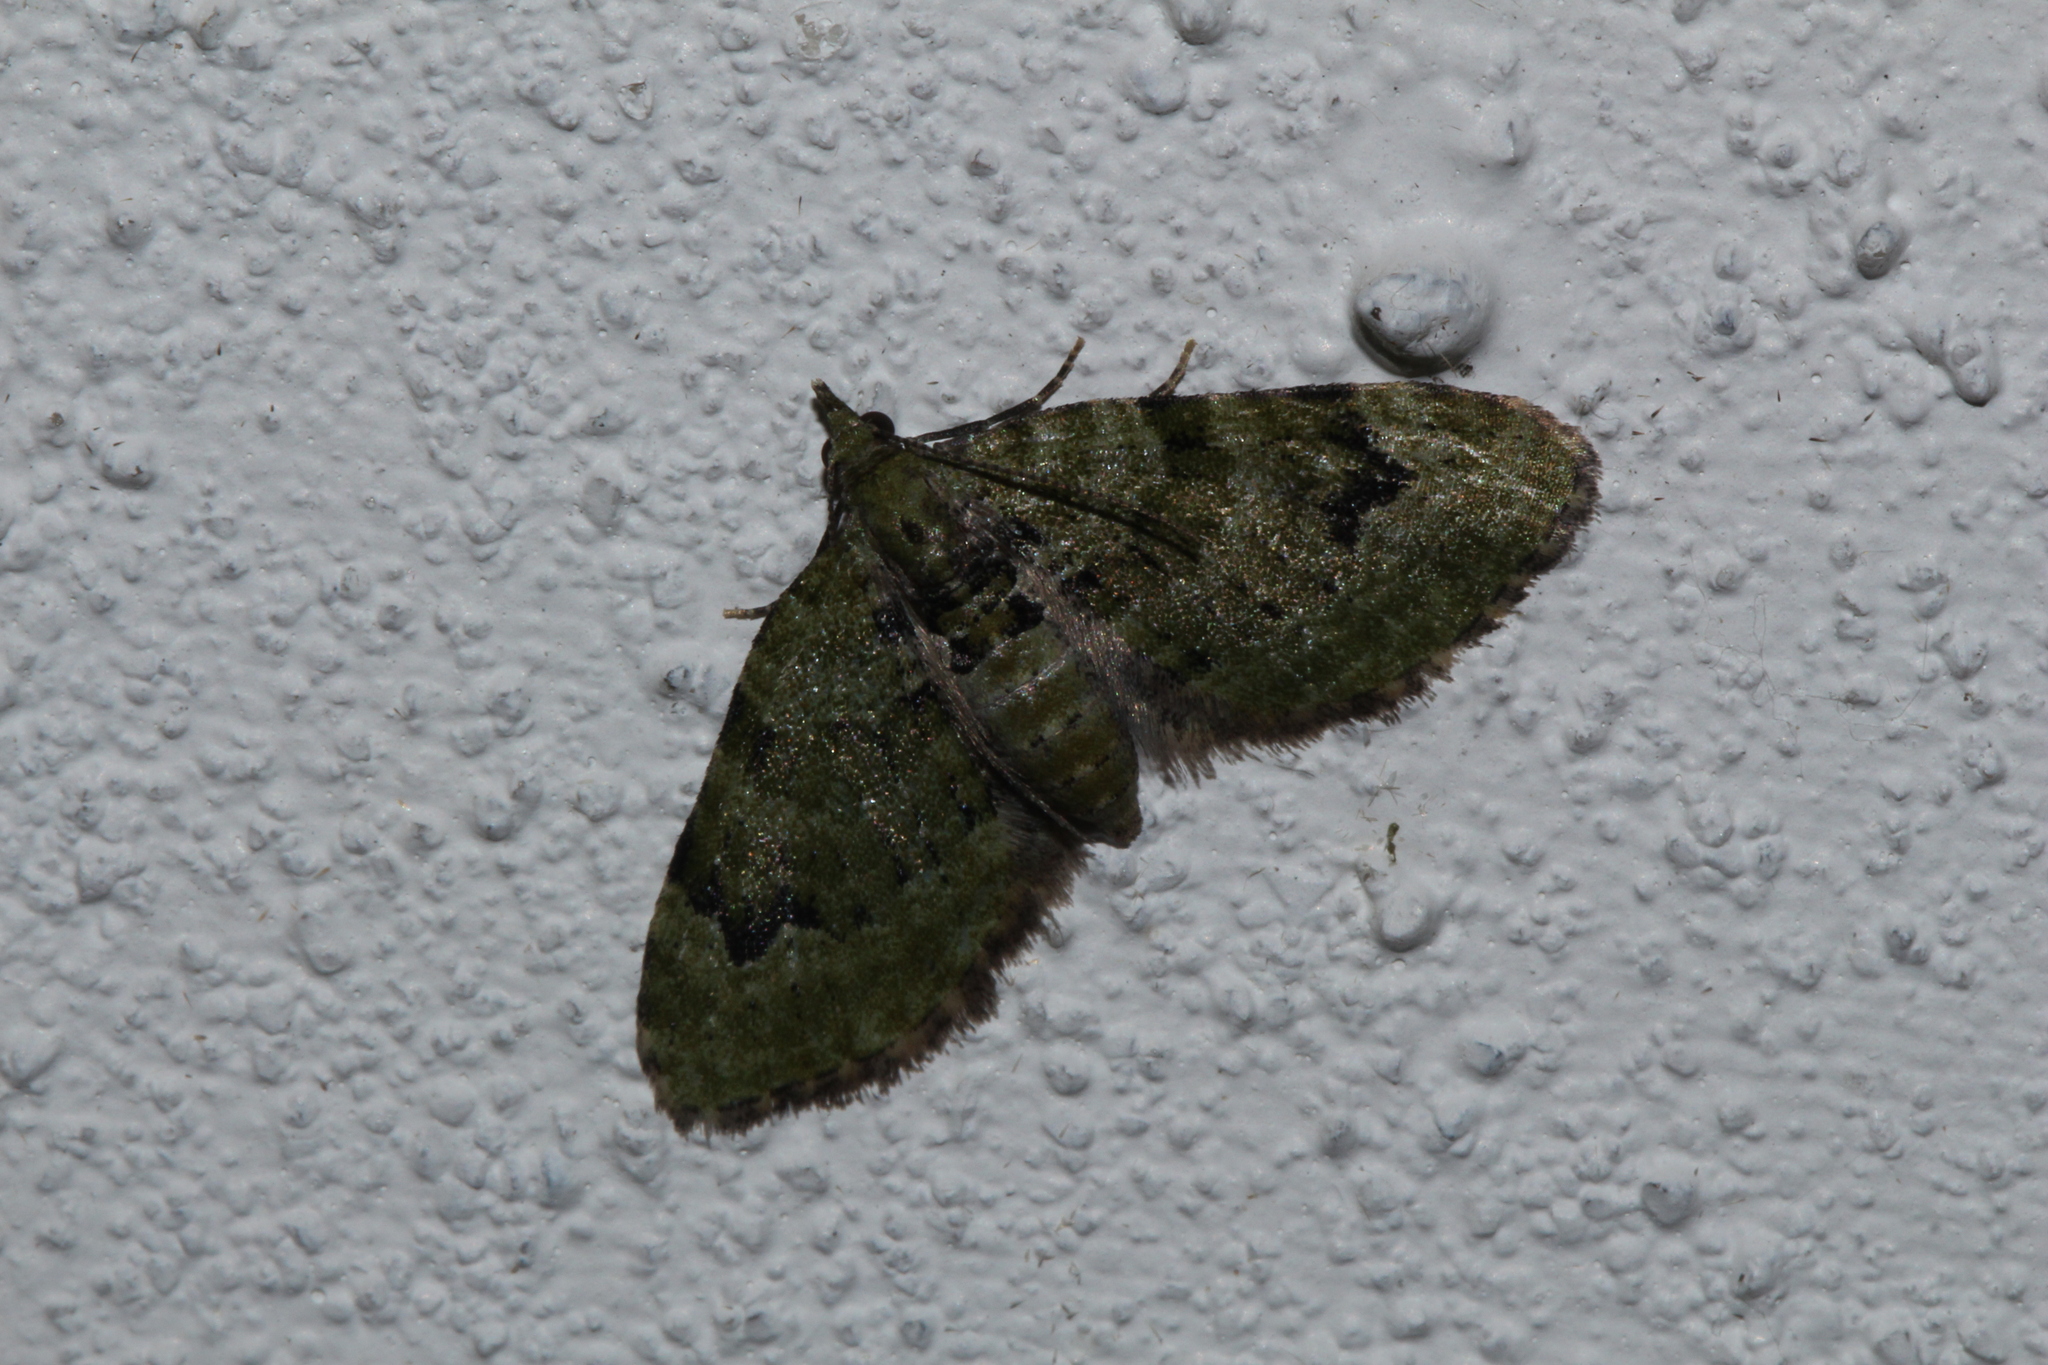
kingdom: Animalia
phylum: Arthropoda
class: Insecta
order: Lepidoptera
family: Geometridae
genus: Chloroclystis
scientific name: Chloroclystis v-ata
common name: V-pug
